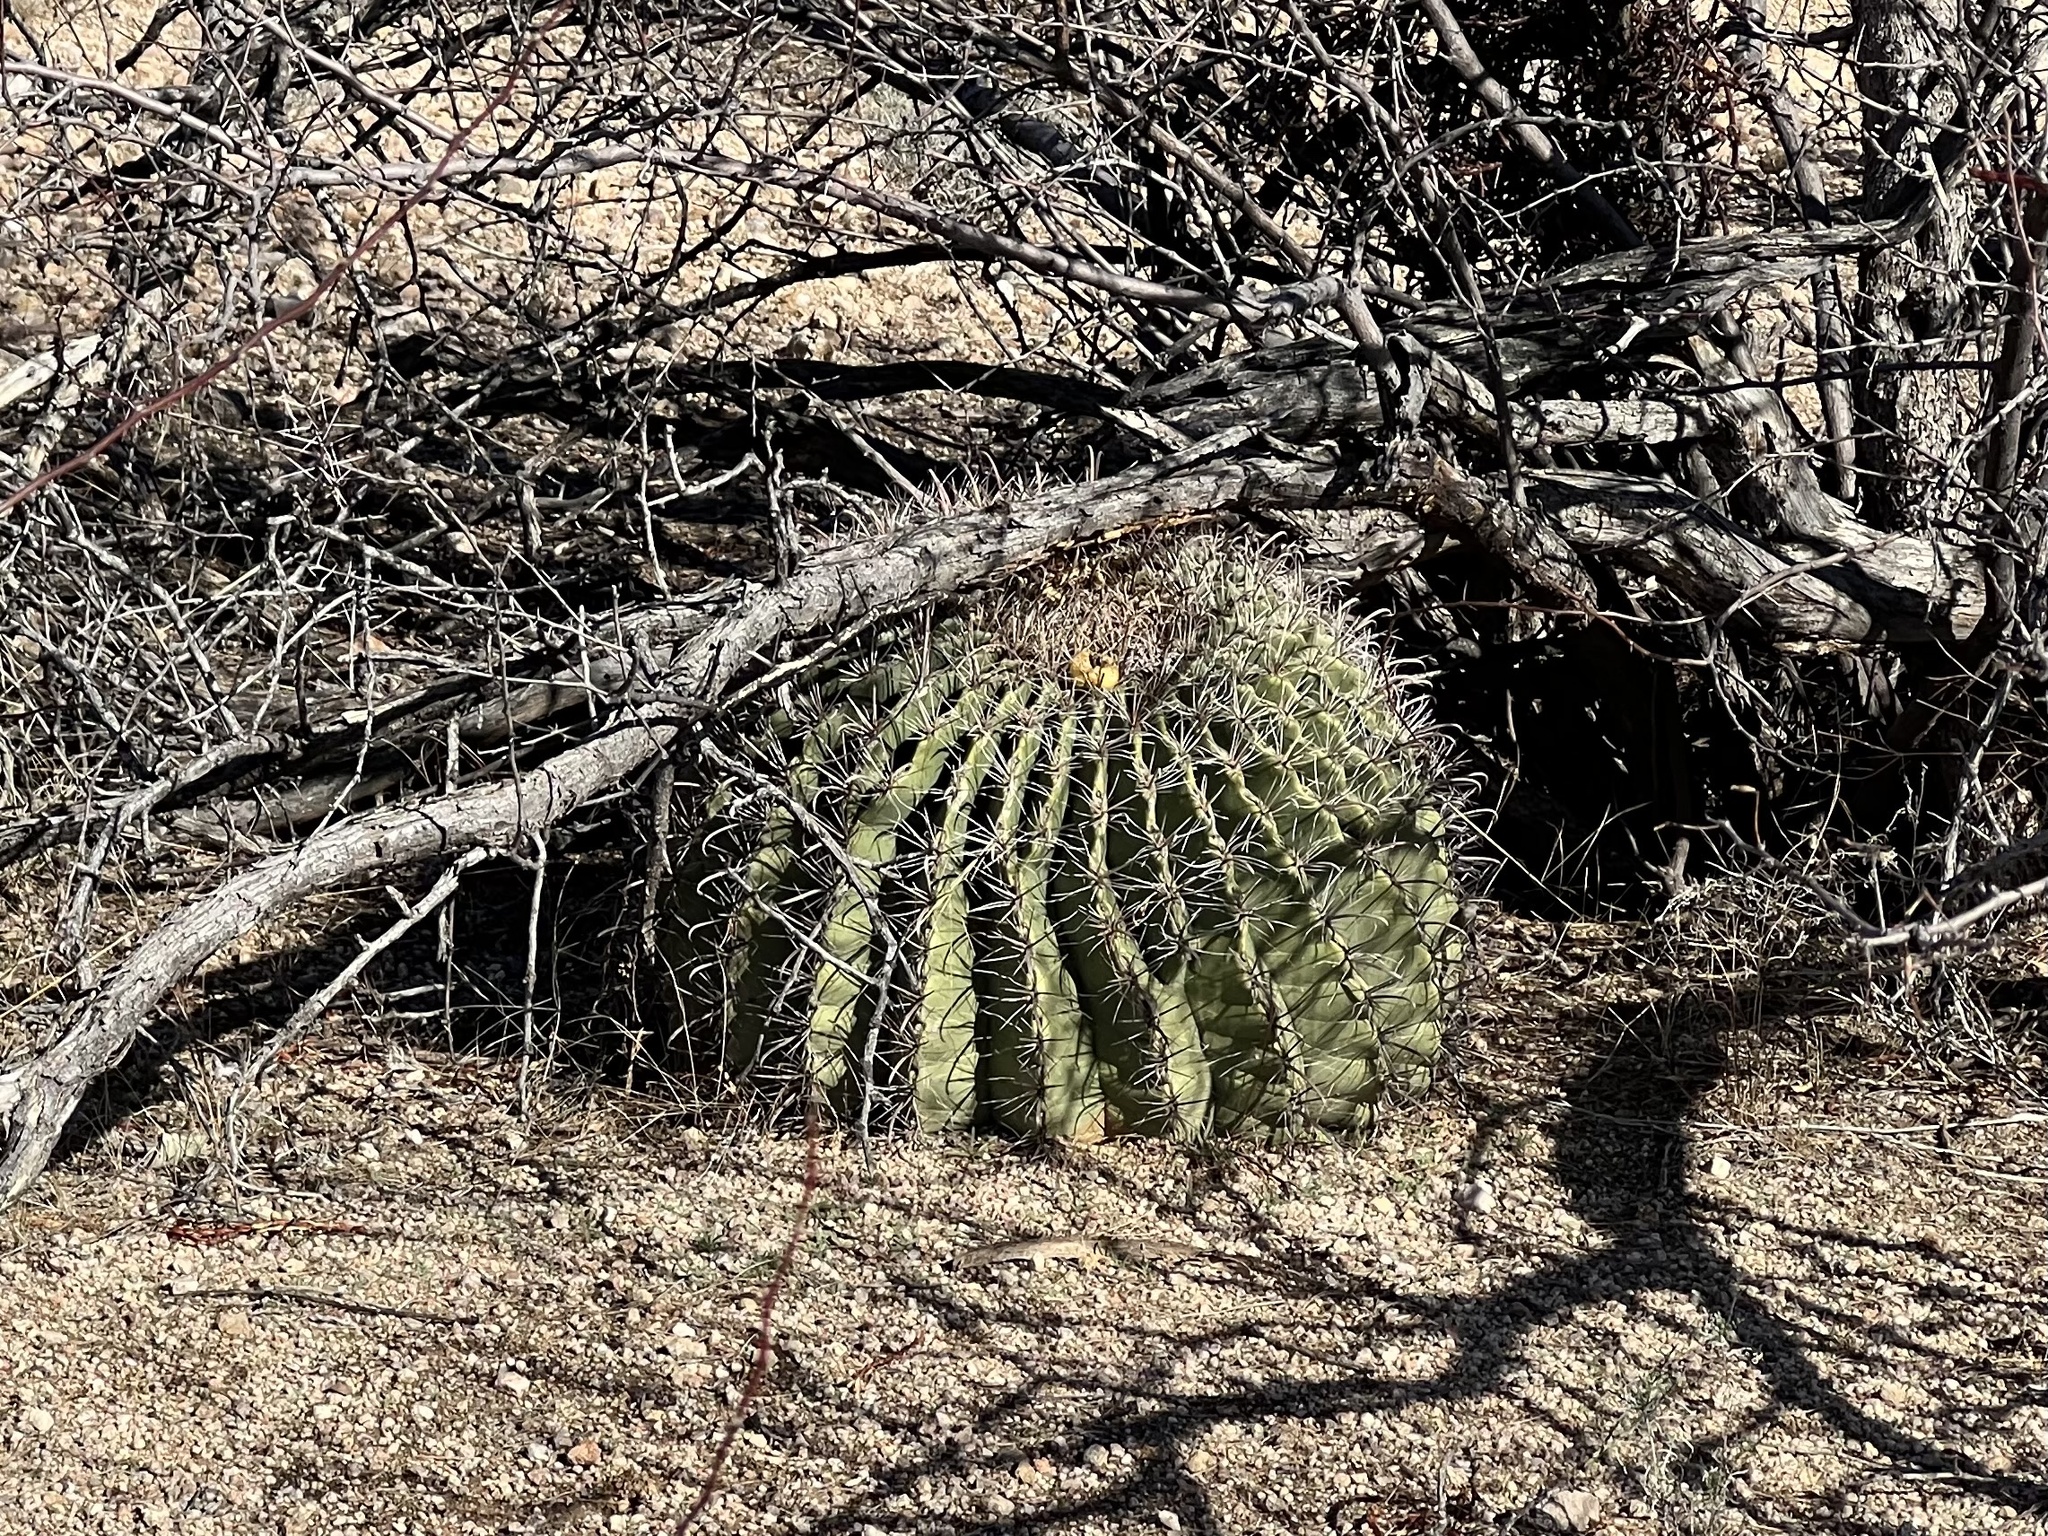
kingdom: Plantae
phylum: Tracheophyta
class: Magnoliopsida
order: Caryophyllales
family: Cactaceae
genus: Ferocactus
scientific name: Ferocactus wislizeni
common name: Candy barrel cactus
